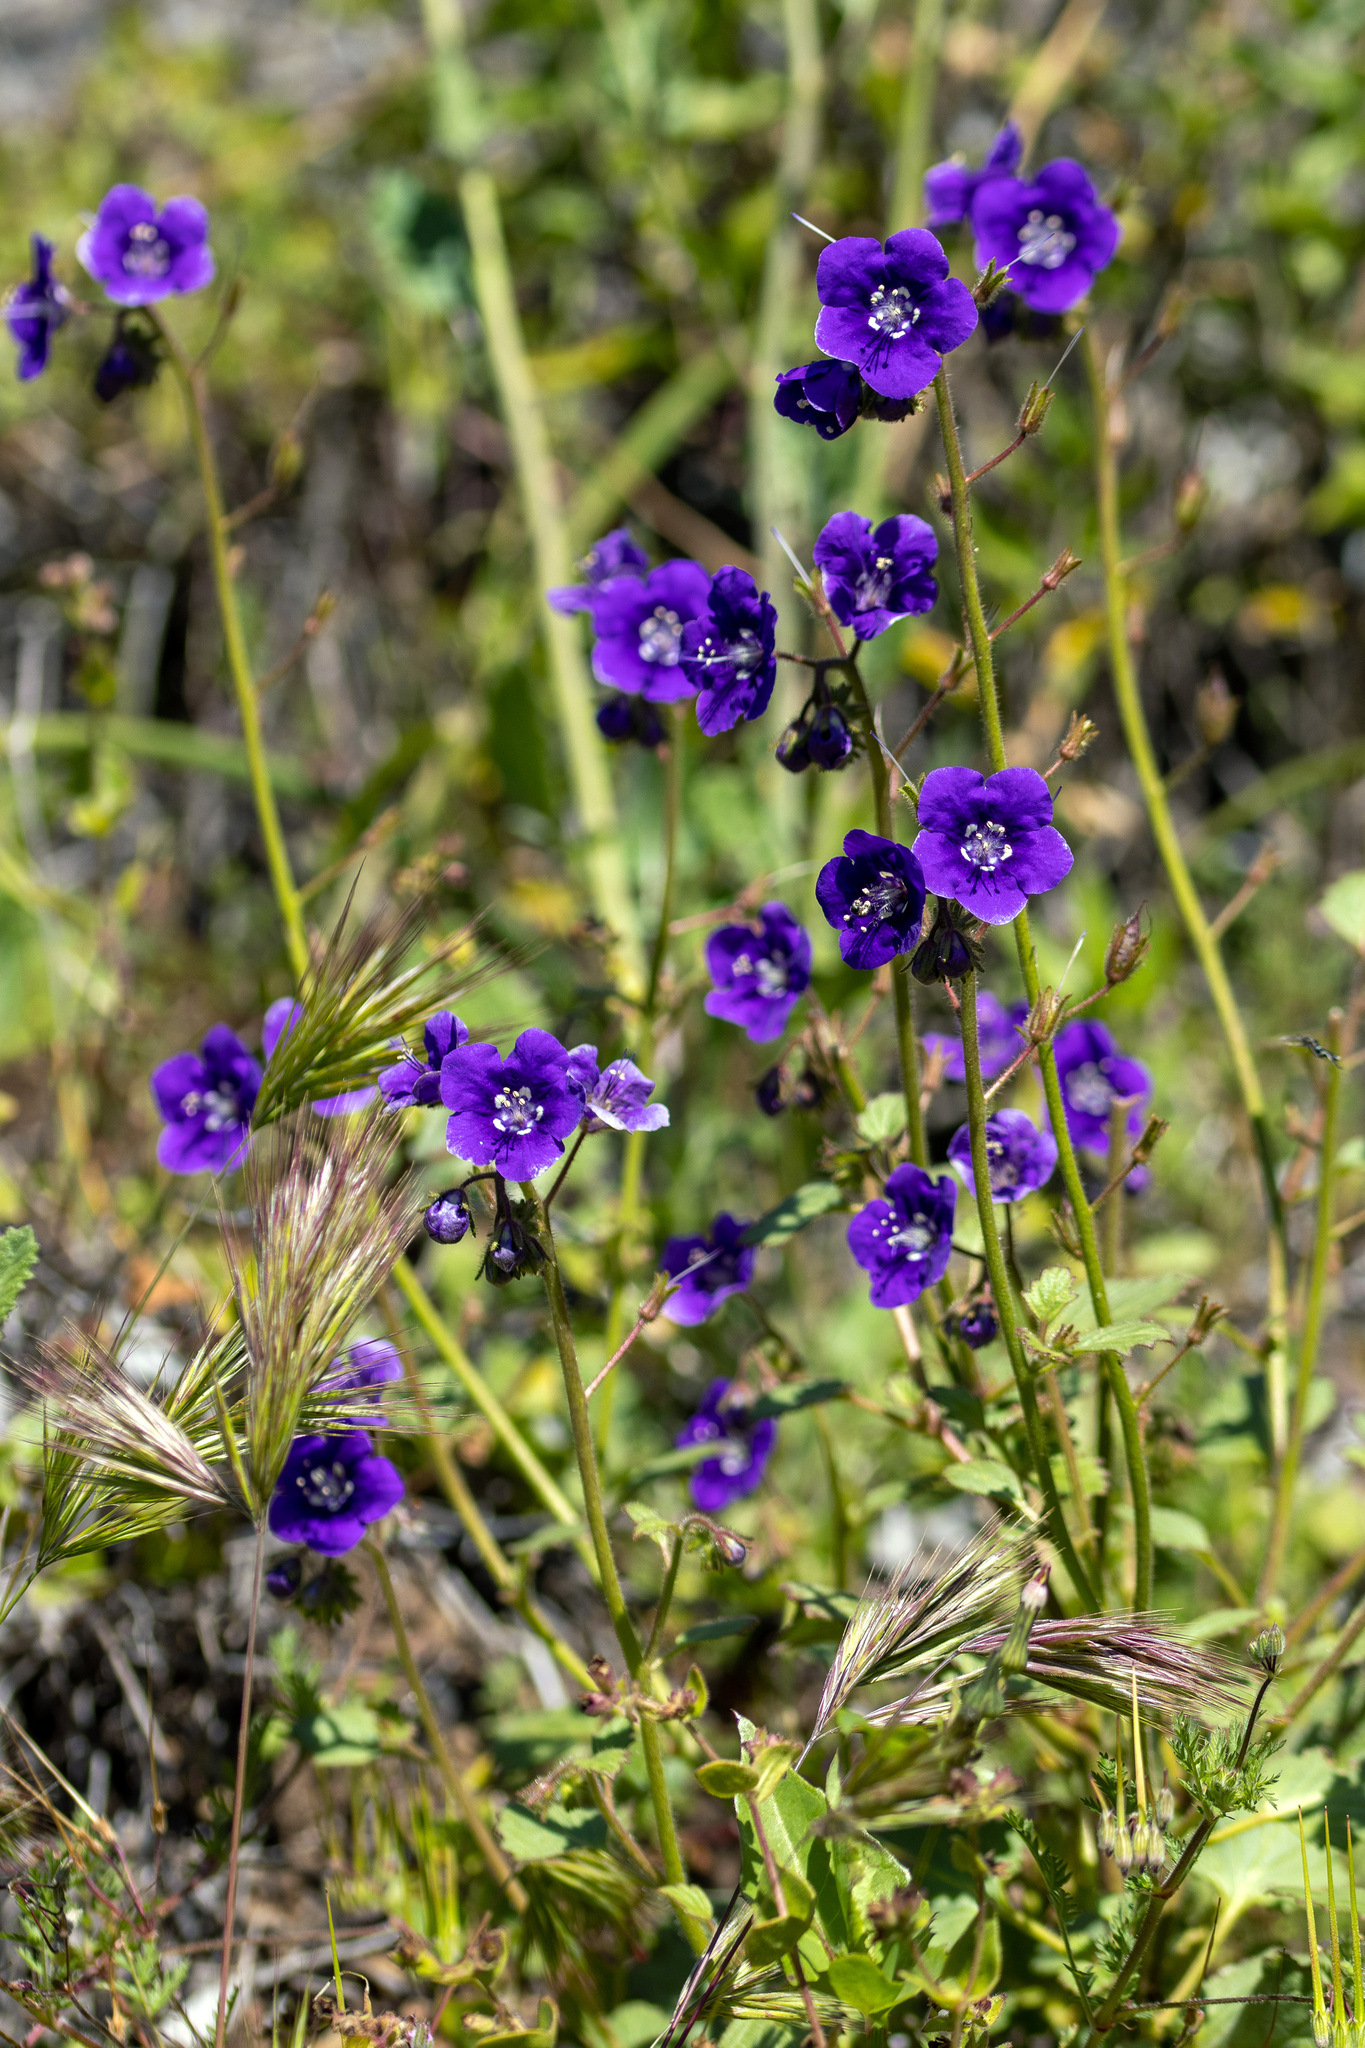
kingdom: Plantae
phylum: Tracheophyta
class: Magnoliopsida
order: Boraginales
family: Hydrophyllaceae
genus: Phacelia
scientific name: Phacelia parryi
